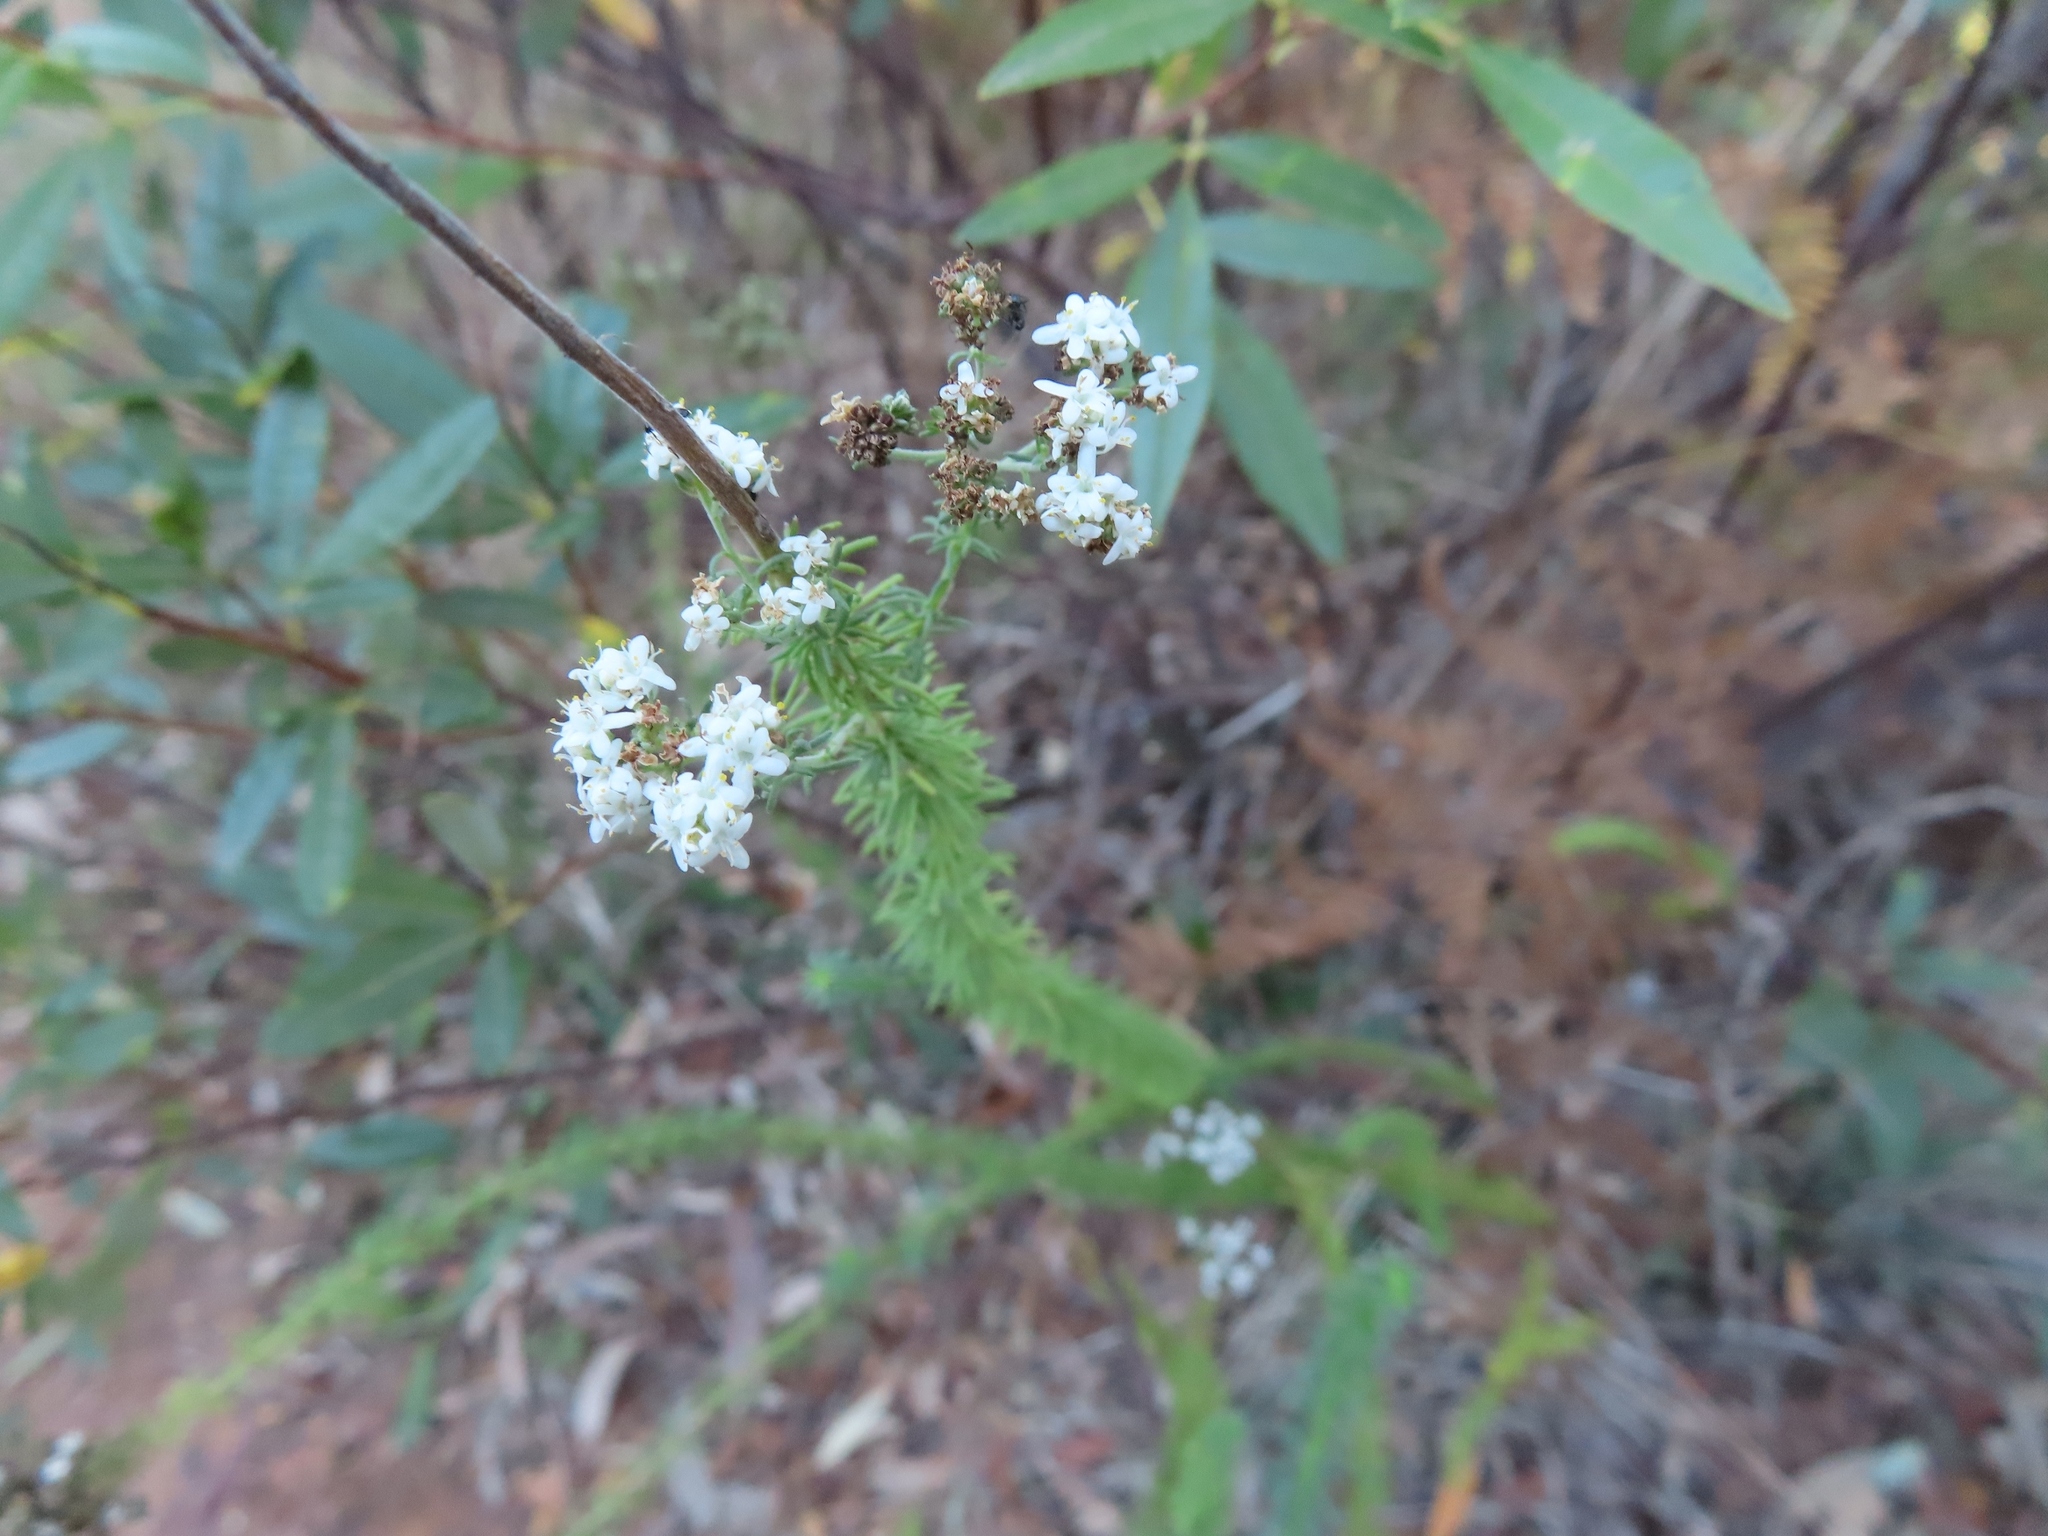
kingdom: Plantae
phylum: Tracheophyta
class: Magnoliopsida
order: Lamiales
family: Scrophulariaceae
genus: Selago
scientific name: Selago corymbosa
